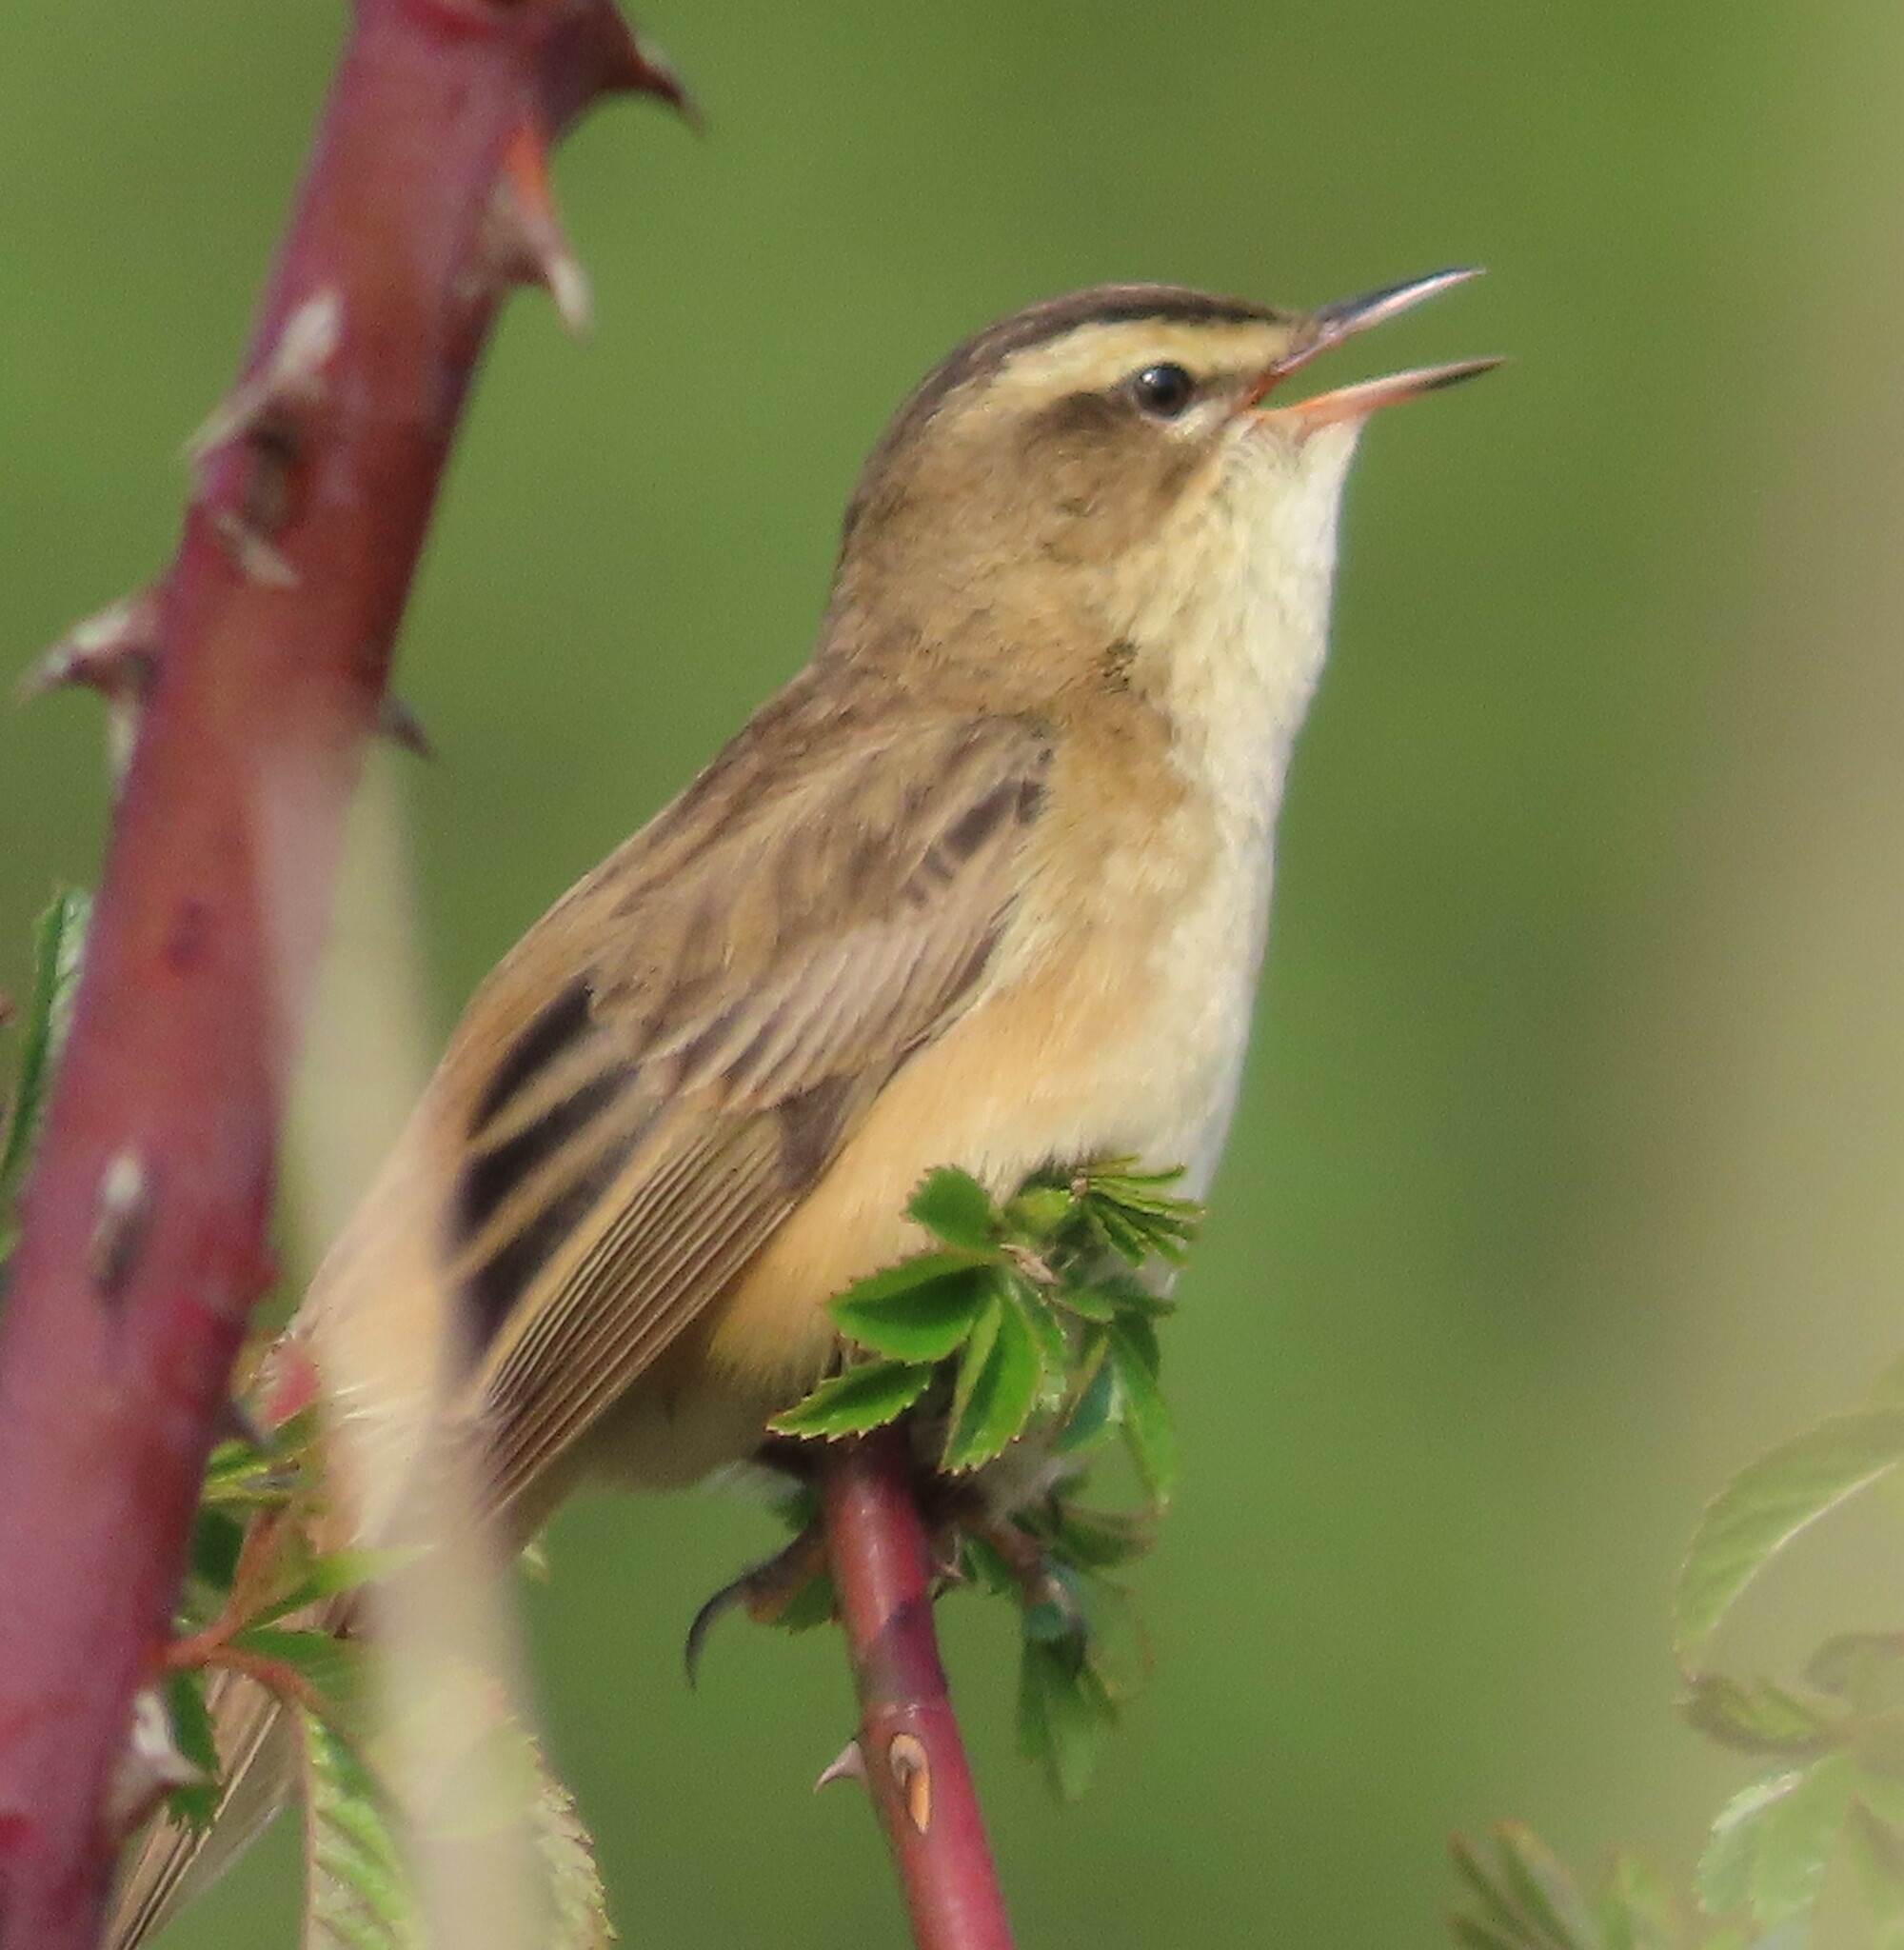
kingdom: Animalia
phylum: Chordata
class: Aves
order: Passeriformes
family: Acrocephalidae
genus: Acrocephalus
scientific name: Acrocephalus schoenobaenus
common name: Sedge warbler
